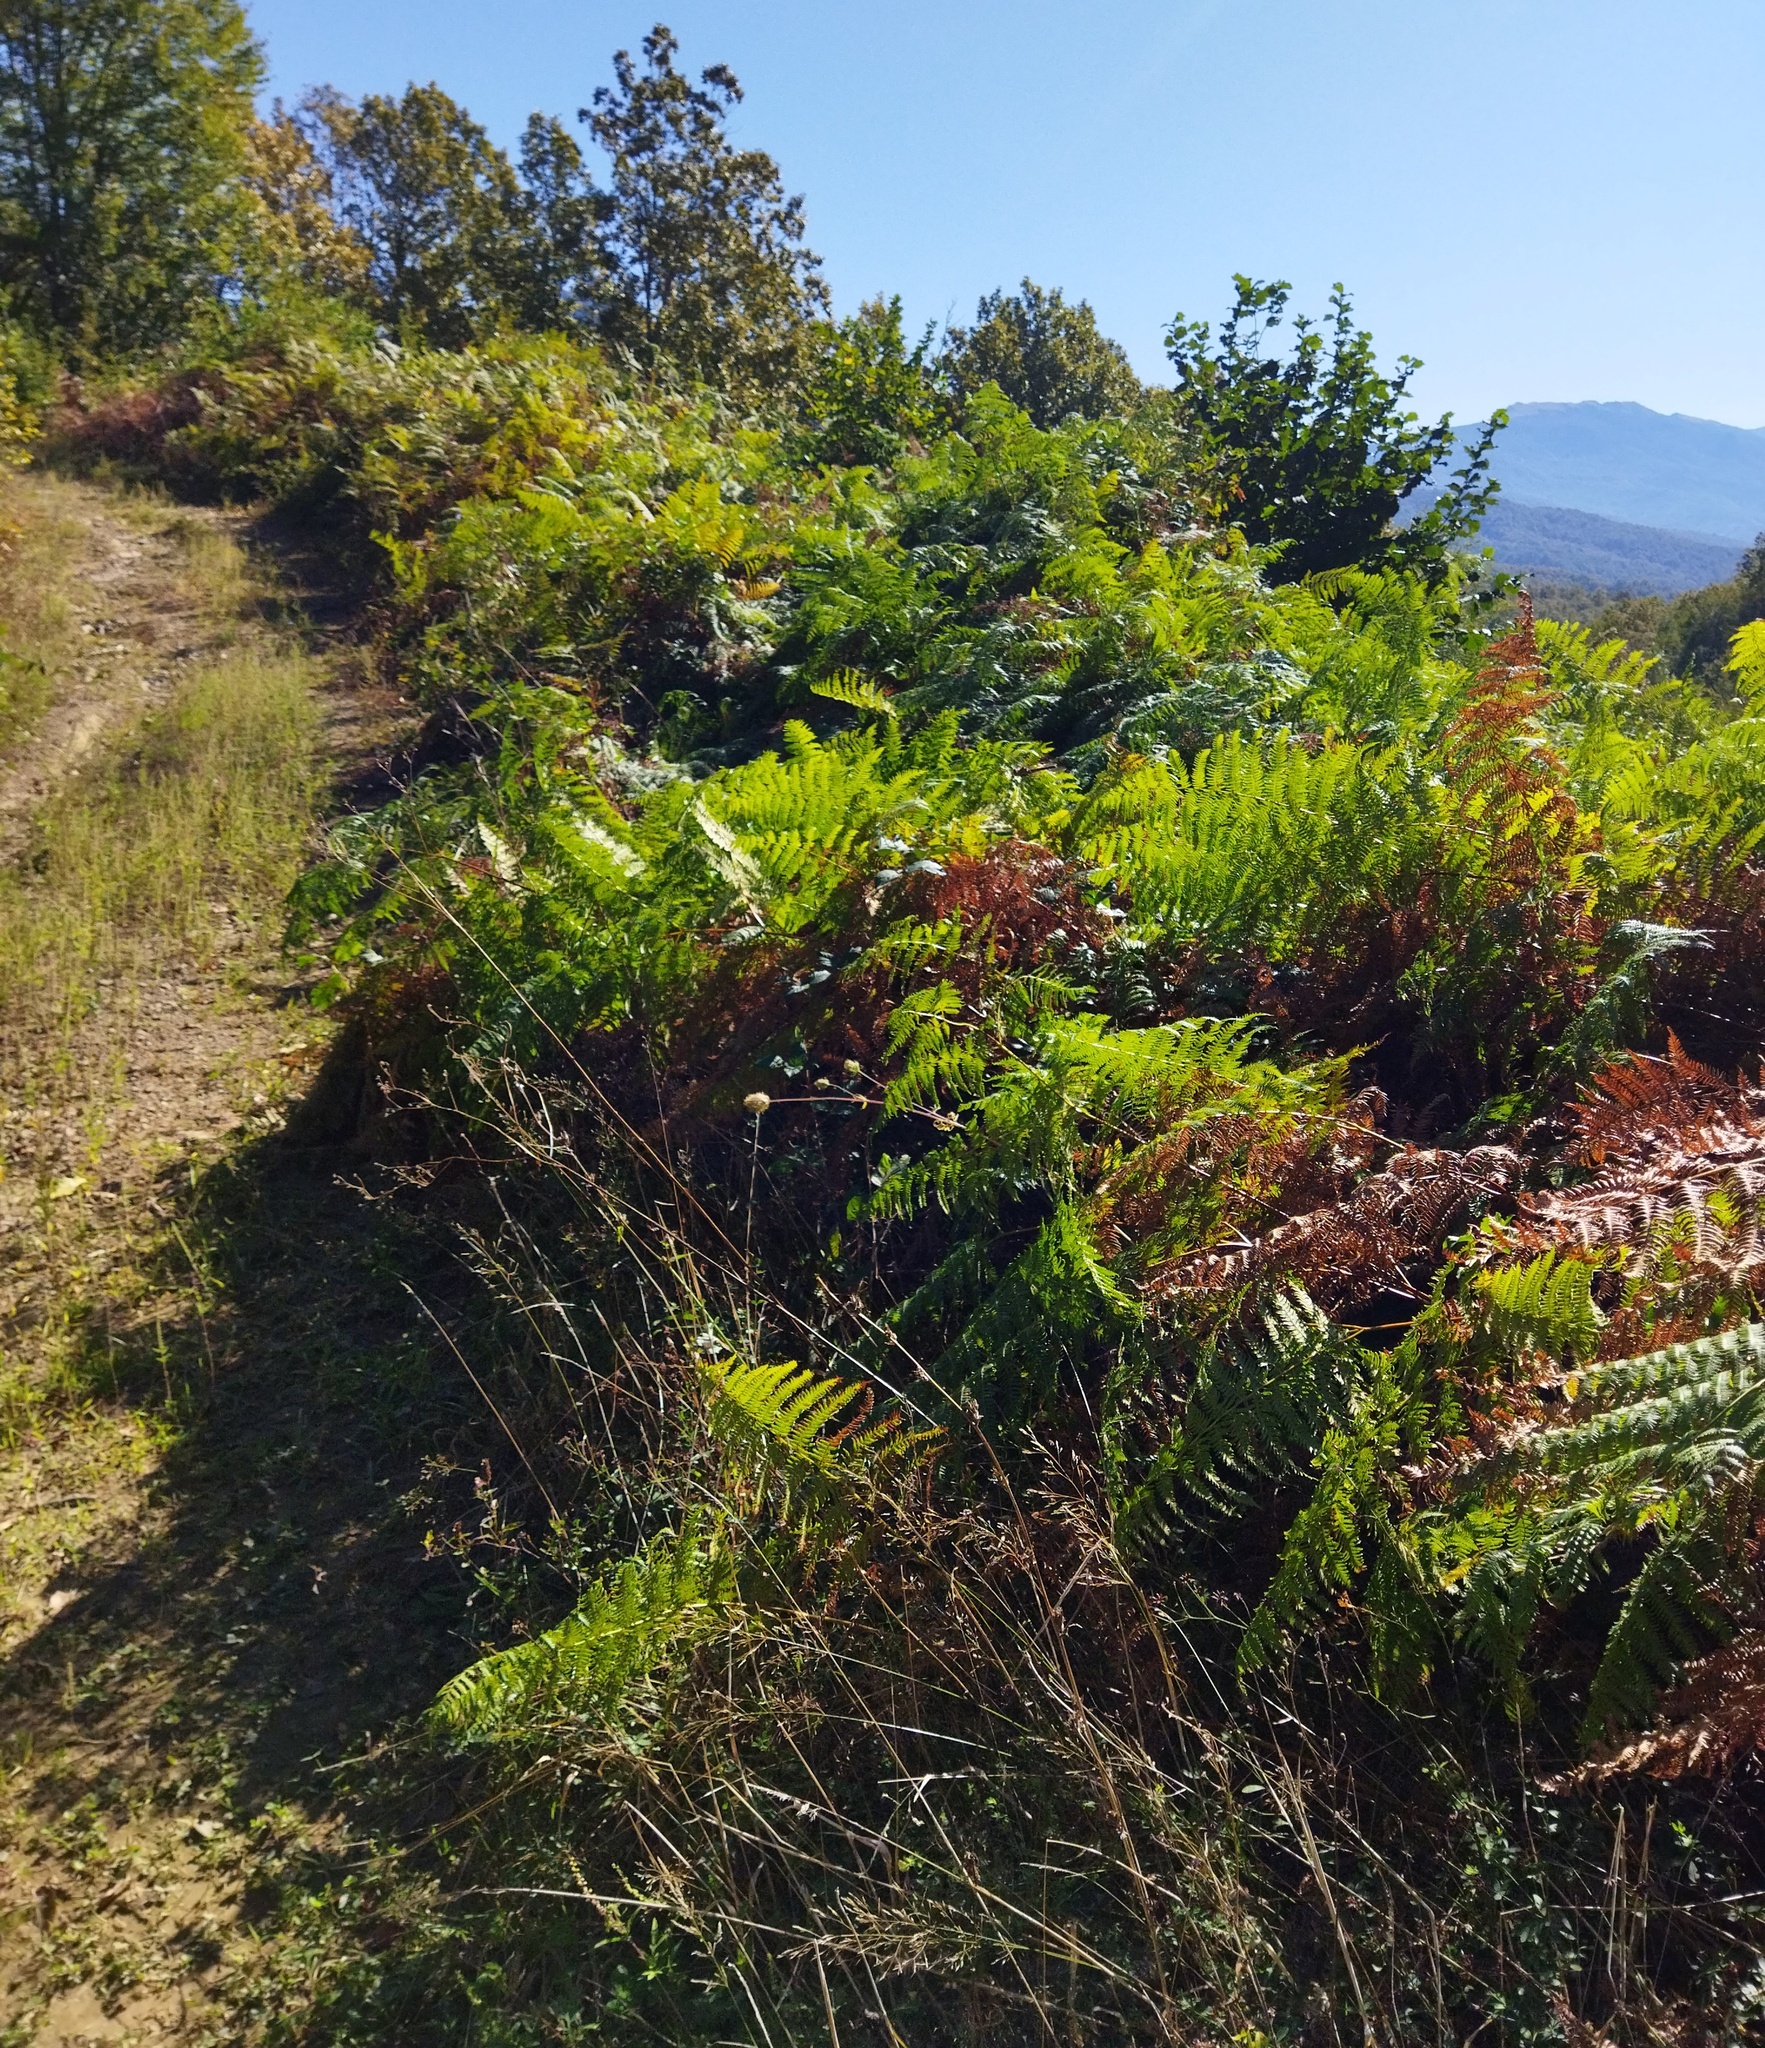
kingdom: Plantae
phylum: Tracheophyta
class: Polypodiopsida
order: Polypodiales
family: Dennstaedtiaceae
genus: Pteridium
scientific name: Pteridium tauricum
